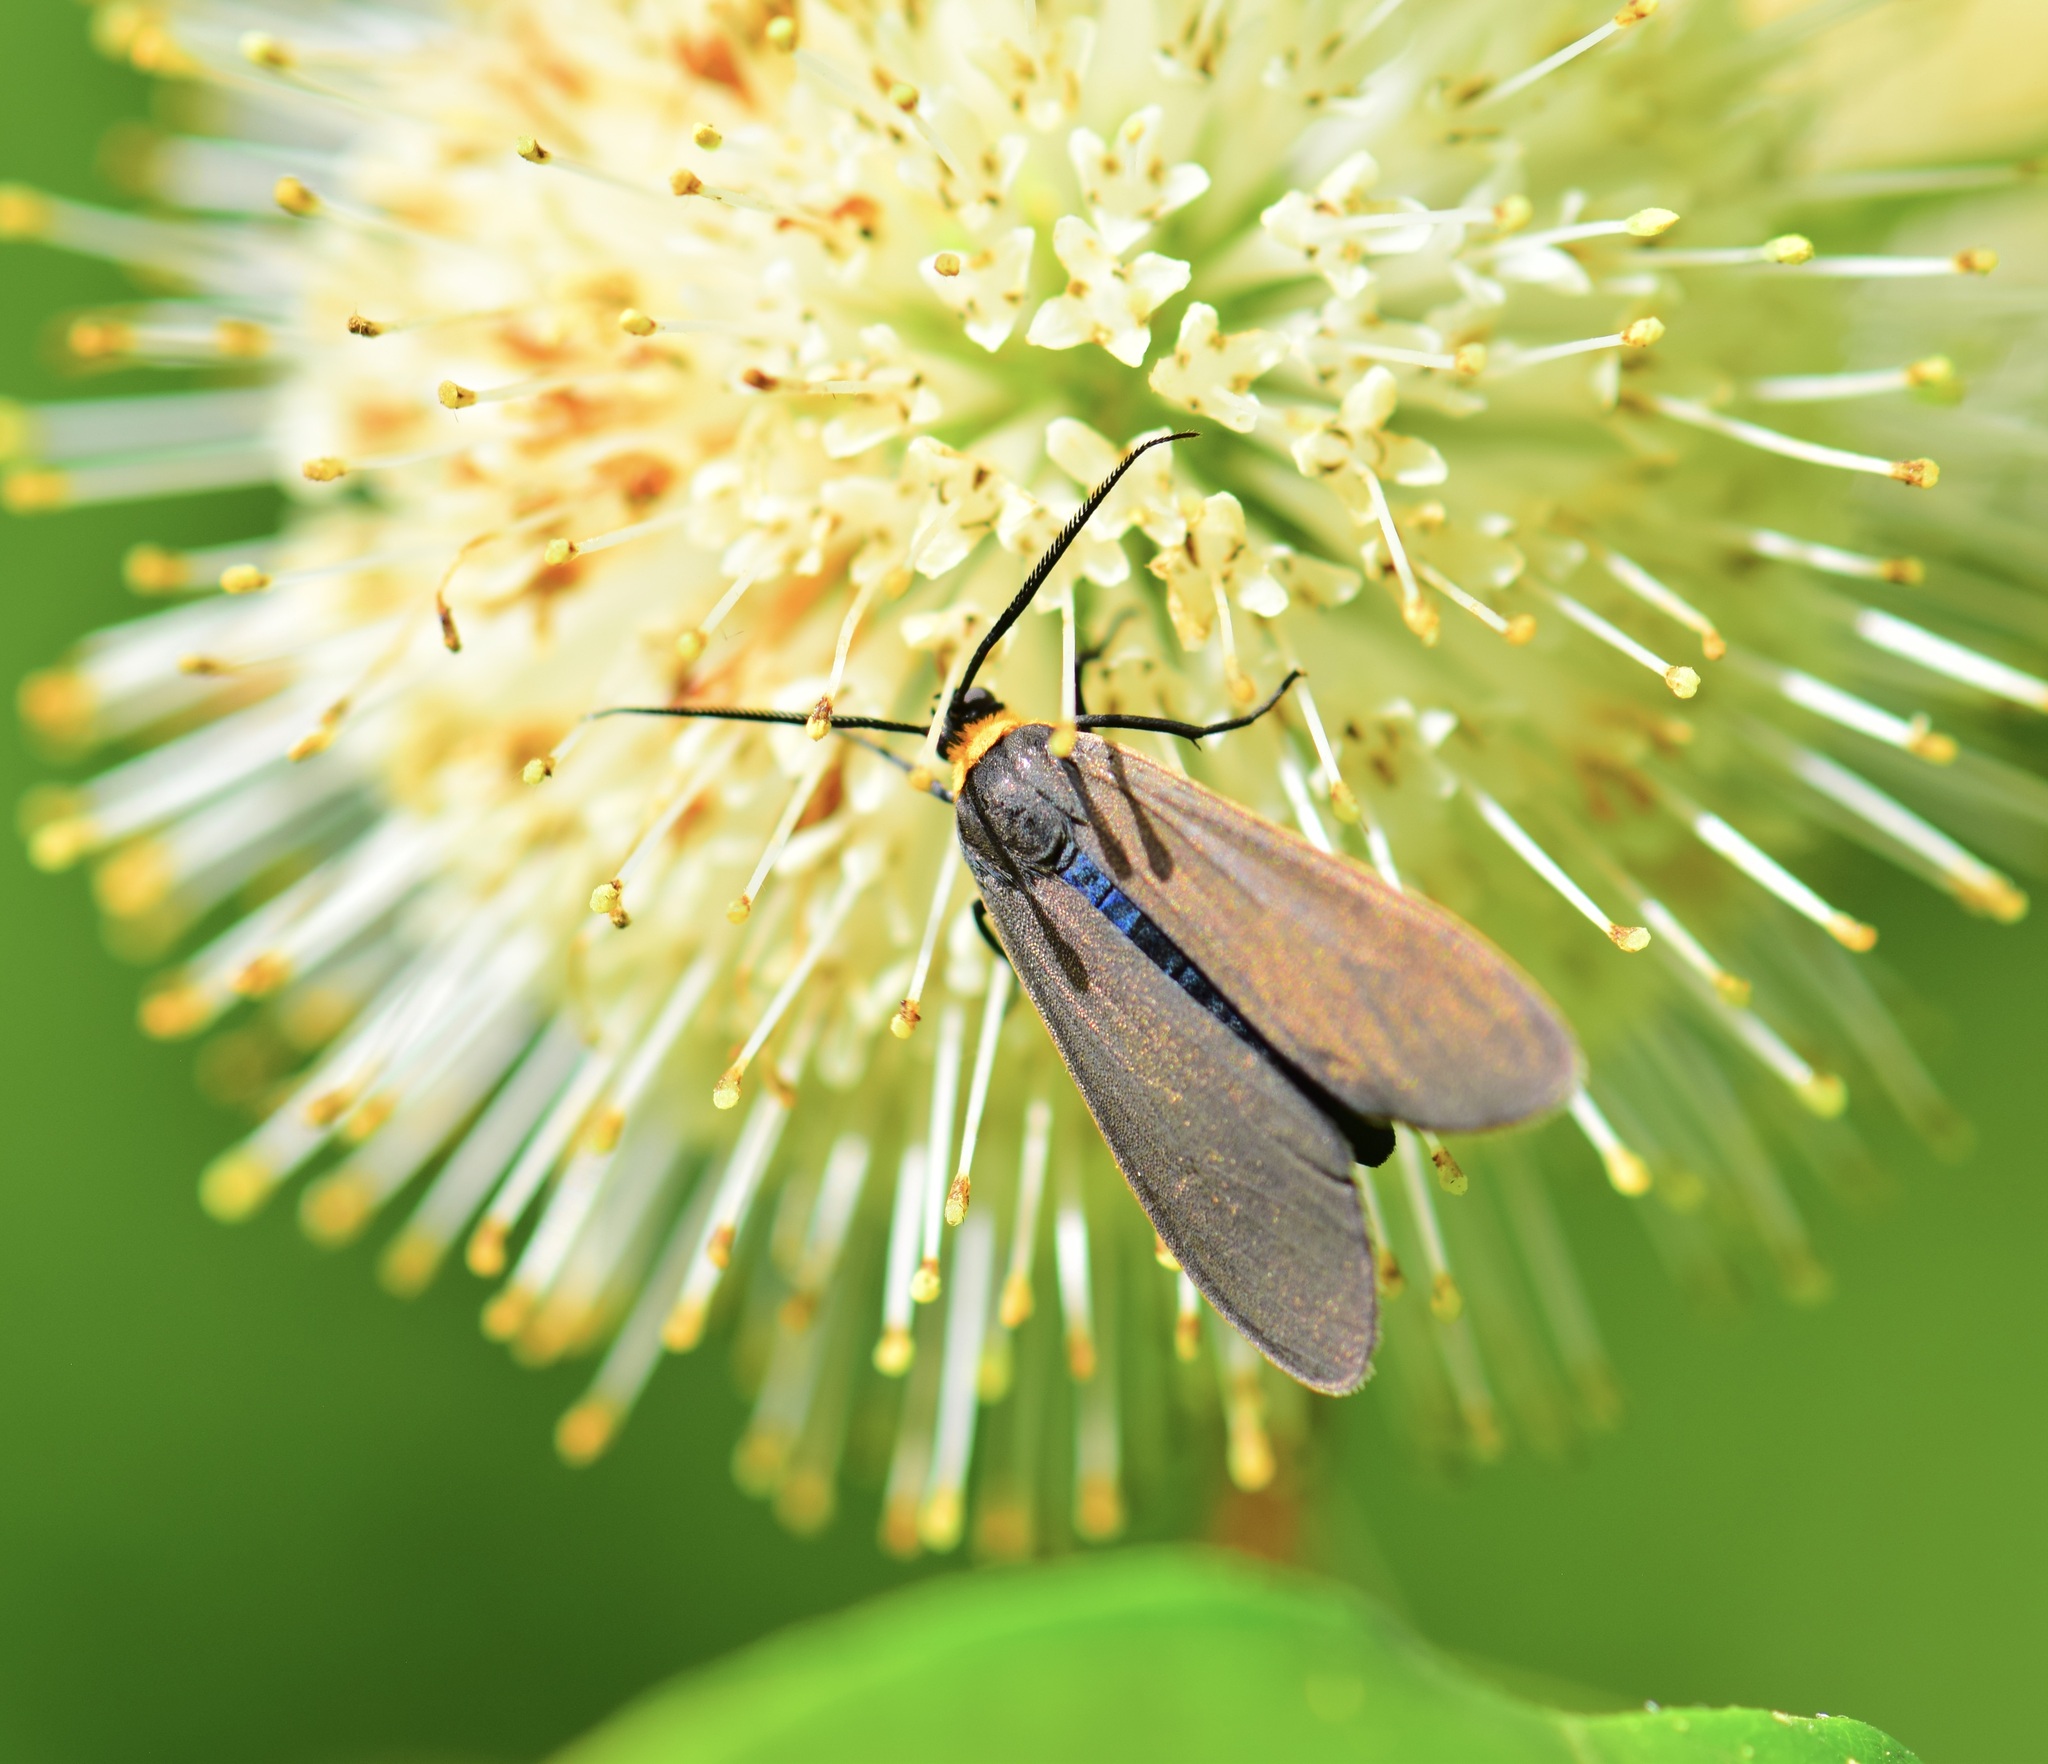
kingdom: Animalia
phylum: Arthropoda
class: Insecta
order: Lepidoptera
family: Erebidae
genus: Cisseps
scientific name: Cisseps fulvicollis
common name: Yellow-collared scape moth
